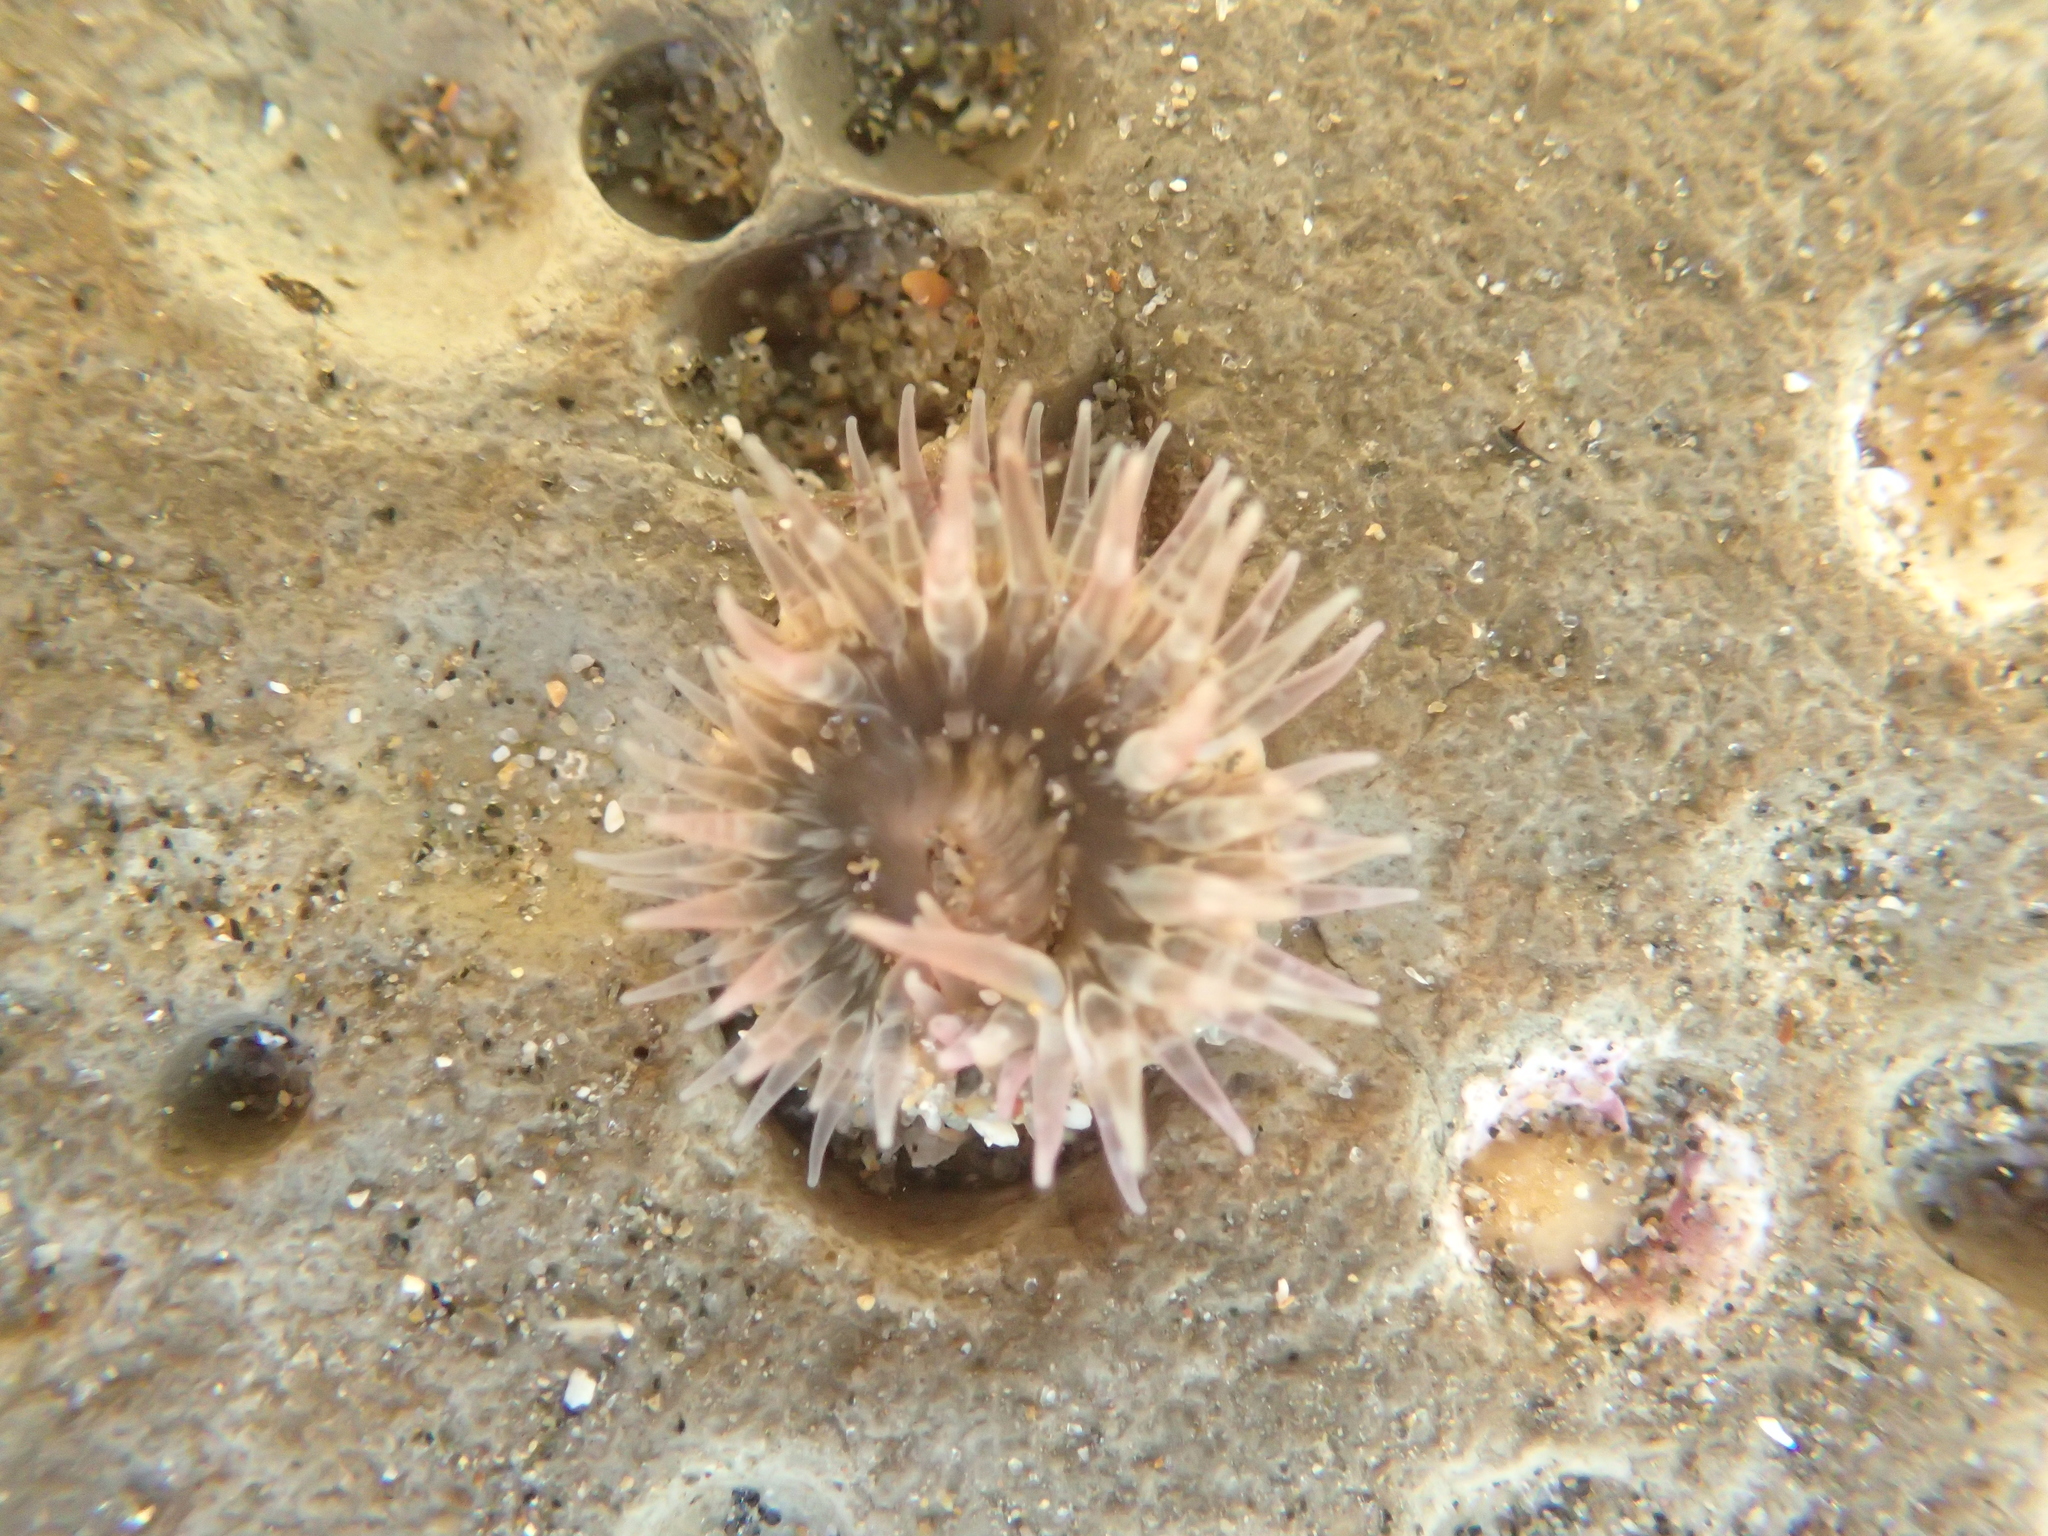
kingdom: Animalia
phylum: Cnidaria
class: Anthozoa
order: Actiniaria
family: Actiniidae
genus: Anthopleura
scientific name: Anthopleura artemisia
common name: Buried sea anemone
